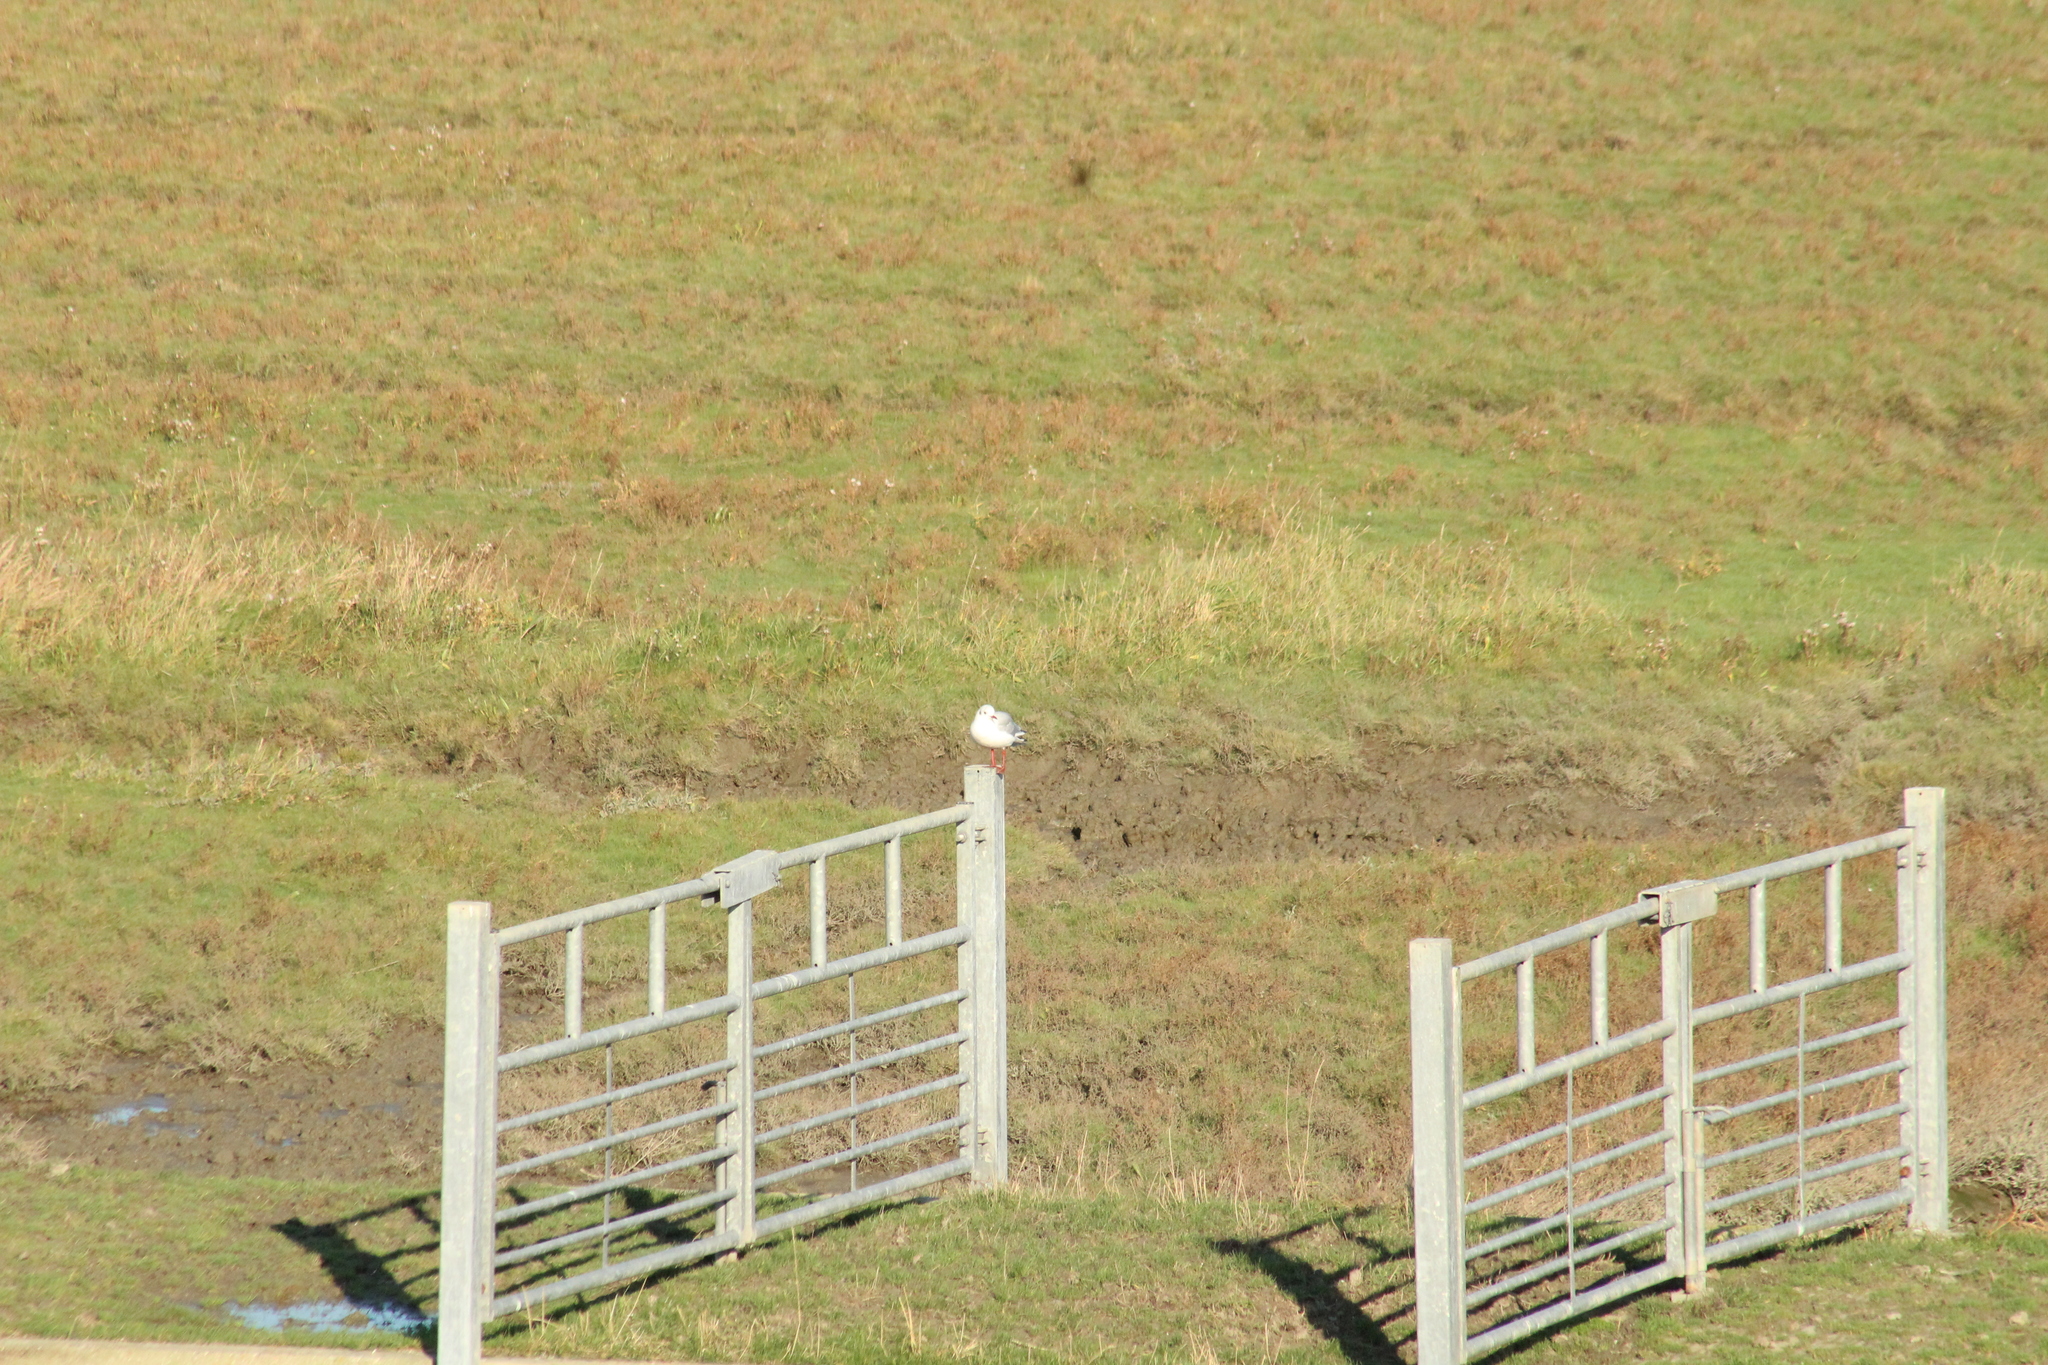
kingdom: Animalia
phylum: Chordata
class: Aves
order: Charadriiformes
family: Laridae
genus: Chroicocephalus
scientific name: Chroicocephalus ridibundus
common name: Black-headed gull
